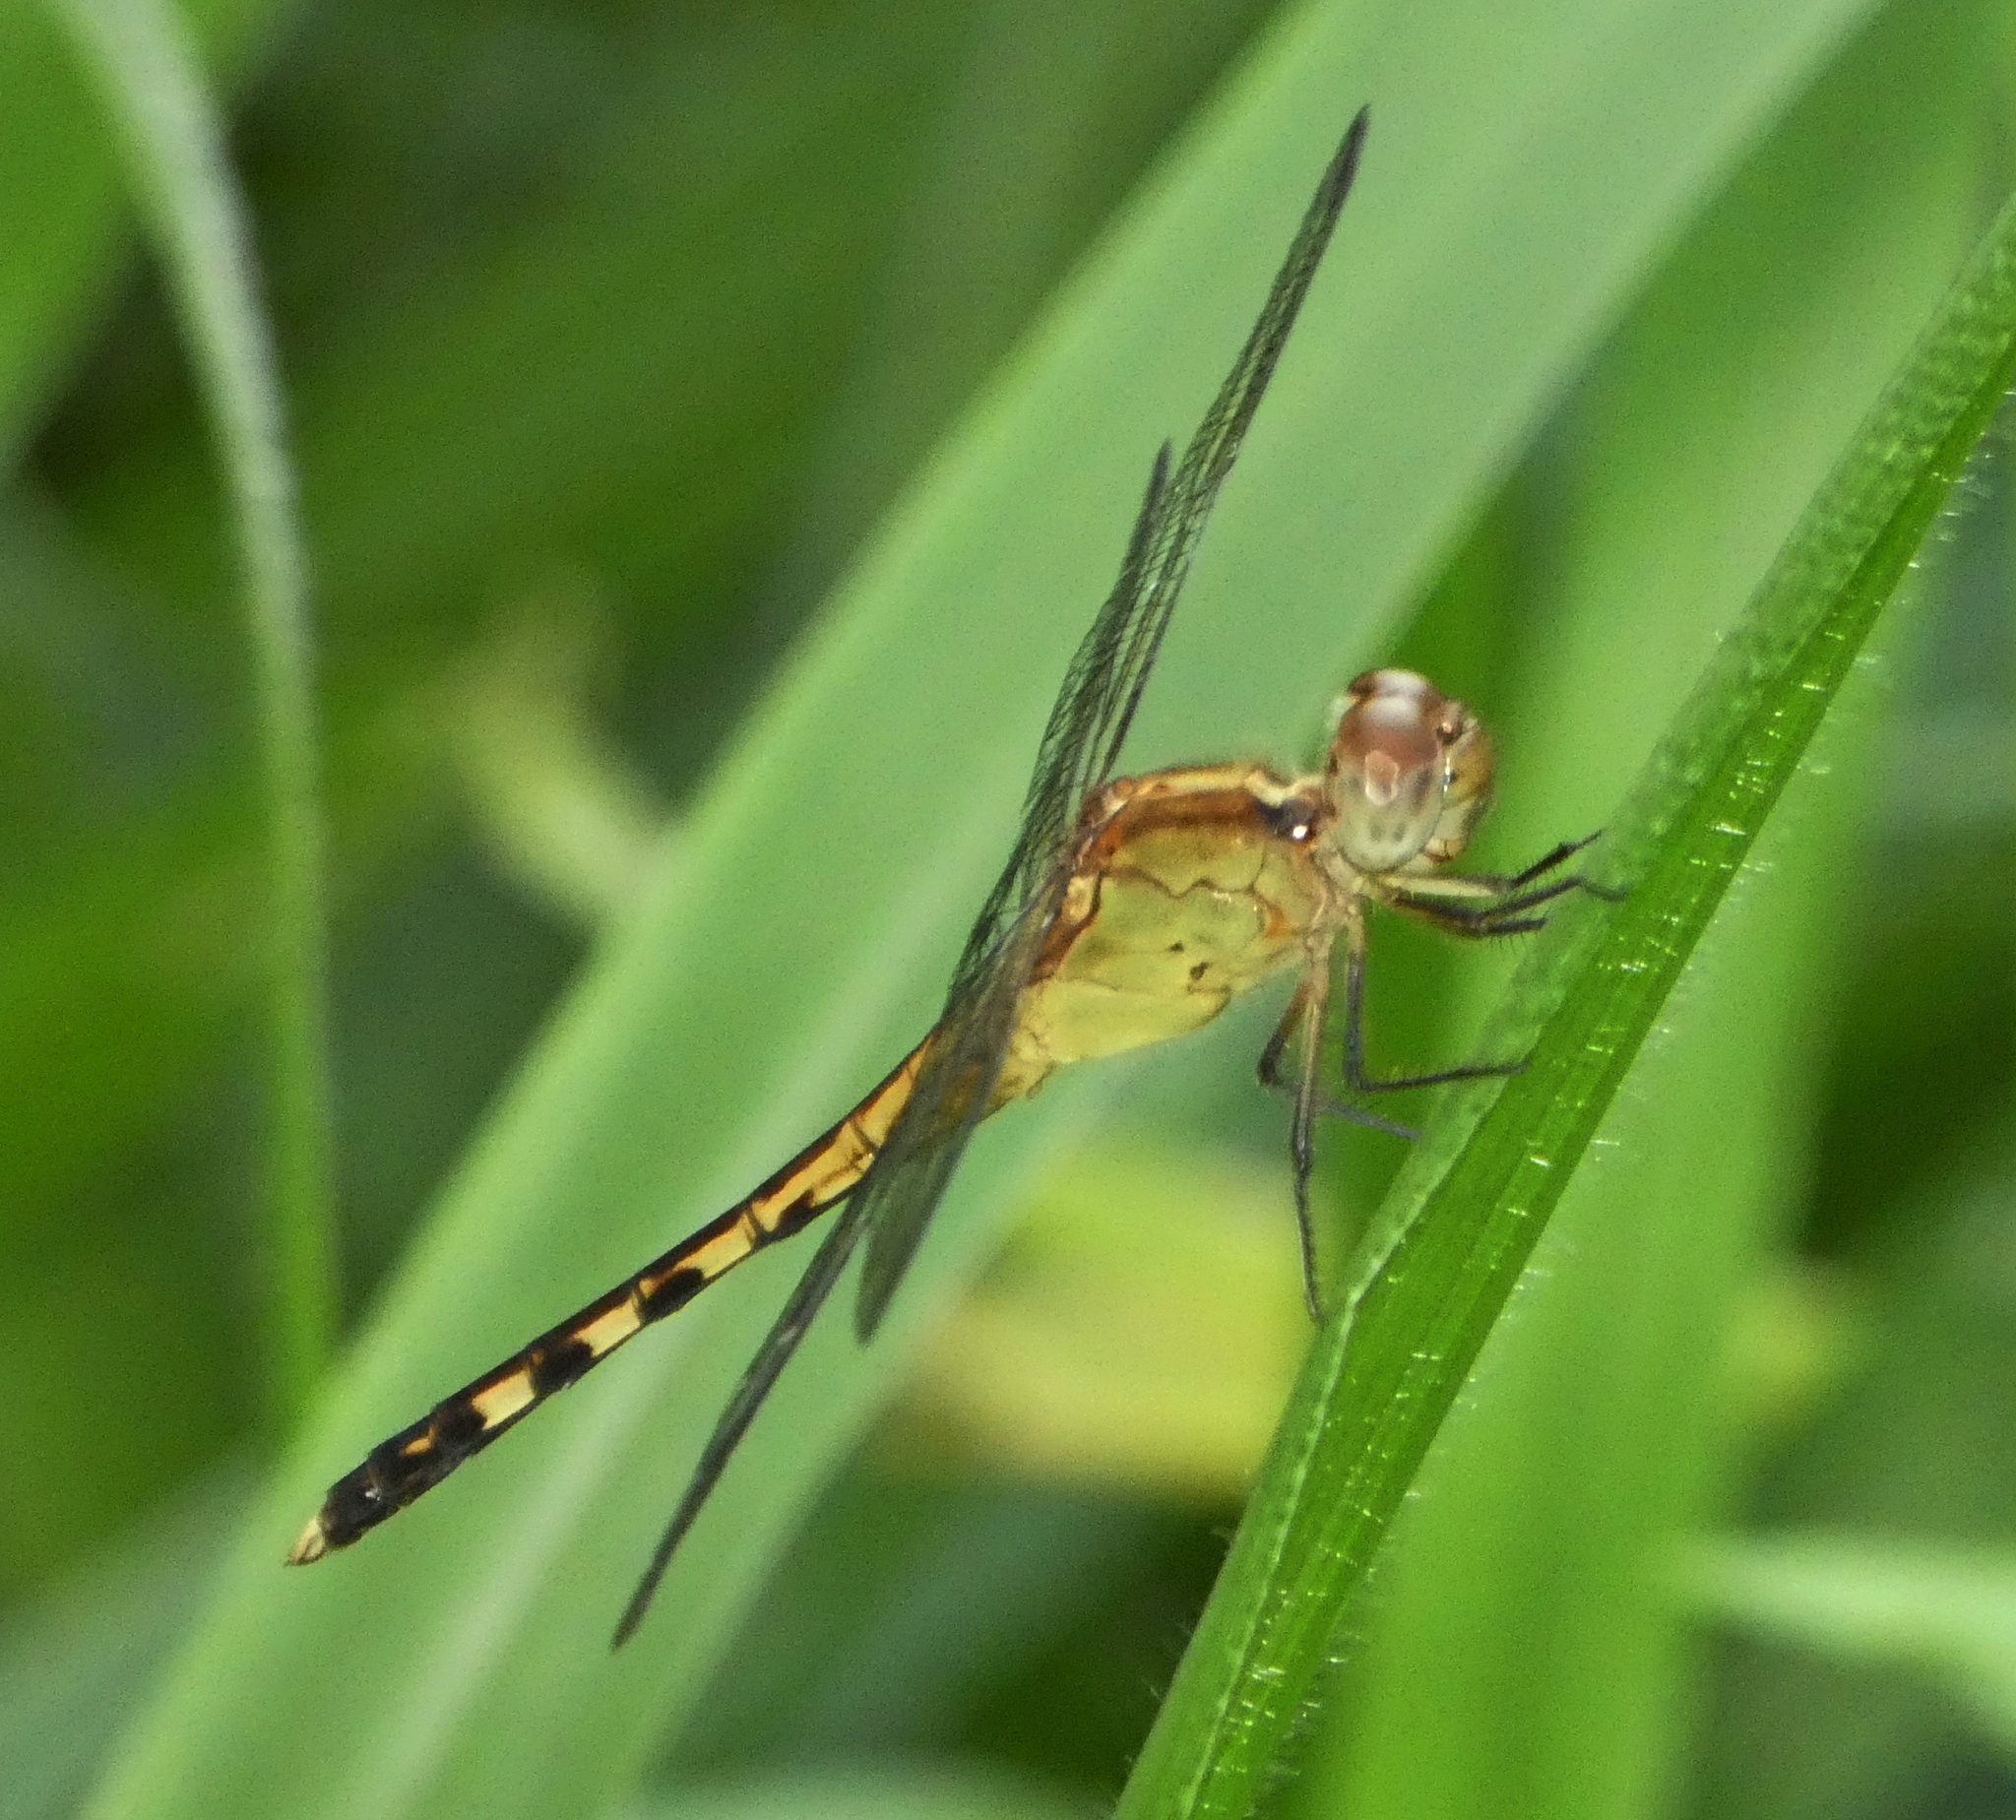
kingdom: Animalia
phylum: Arthropoda
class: Insecta
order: Odonata
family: Libellulidae
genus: Erythrodiplax
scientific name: Erythrodiplax umbrata
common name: Band-winged dragonlet
